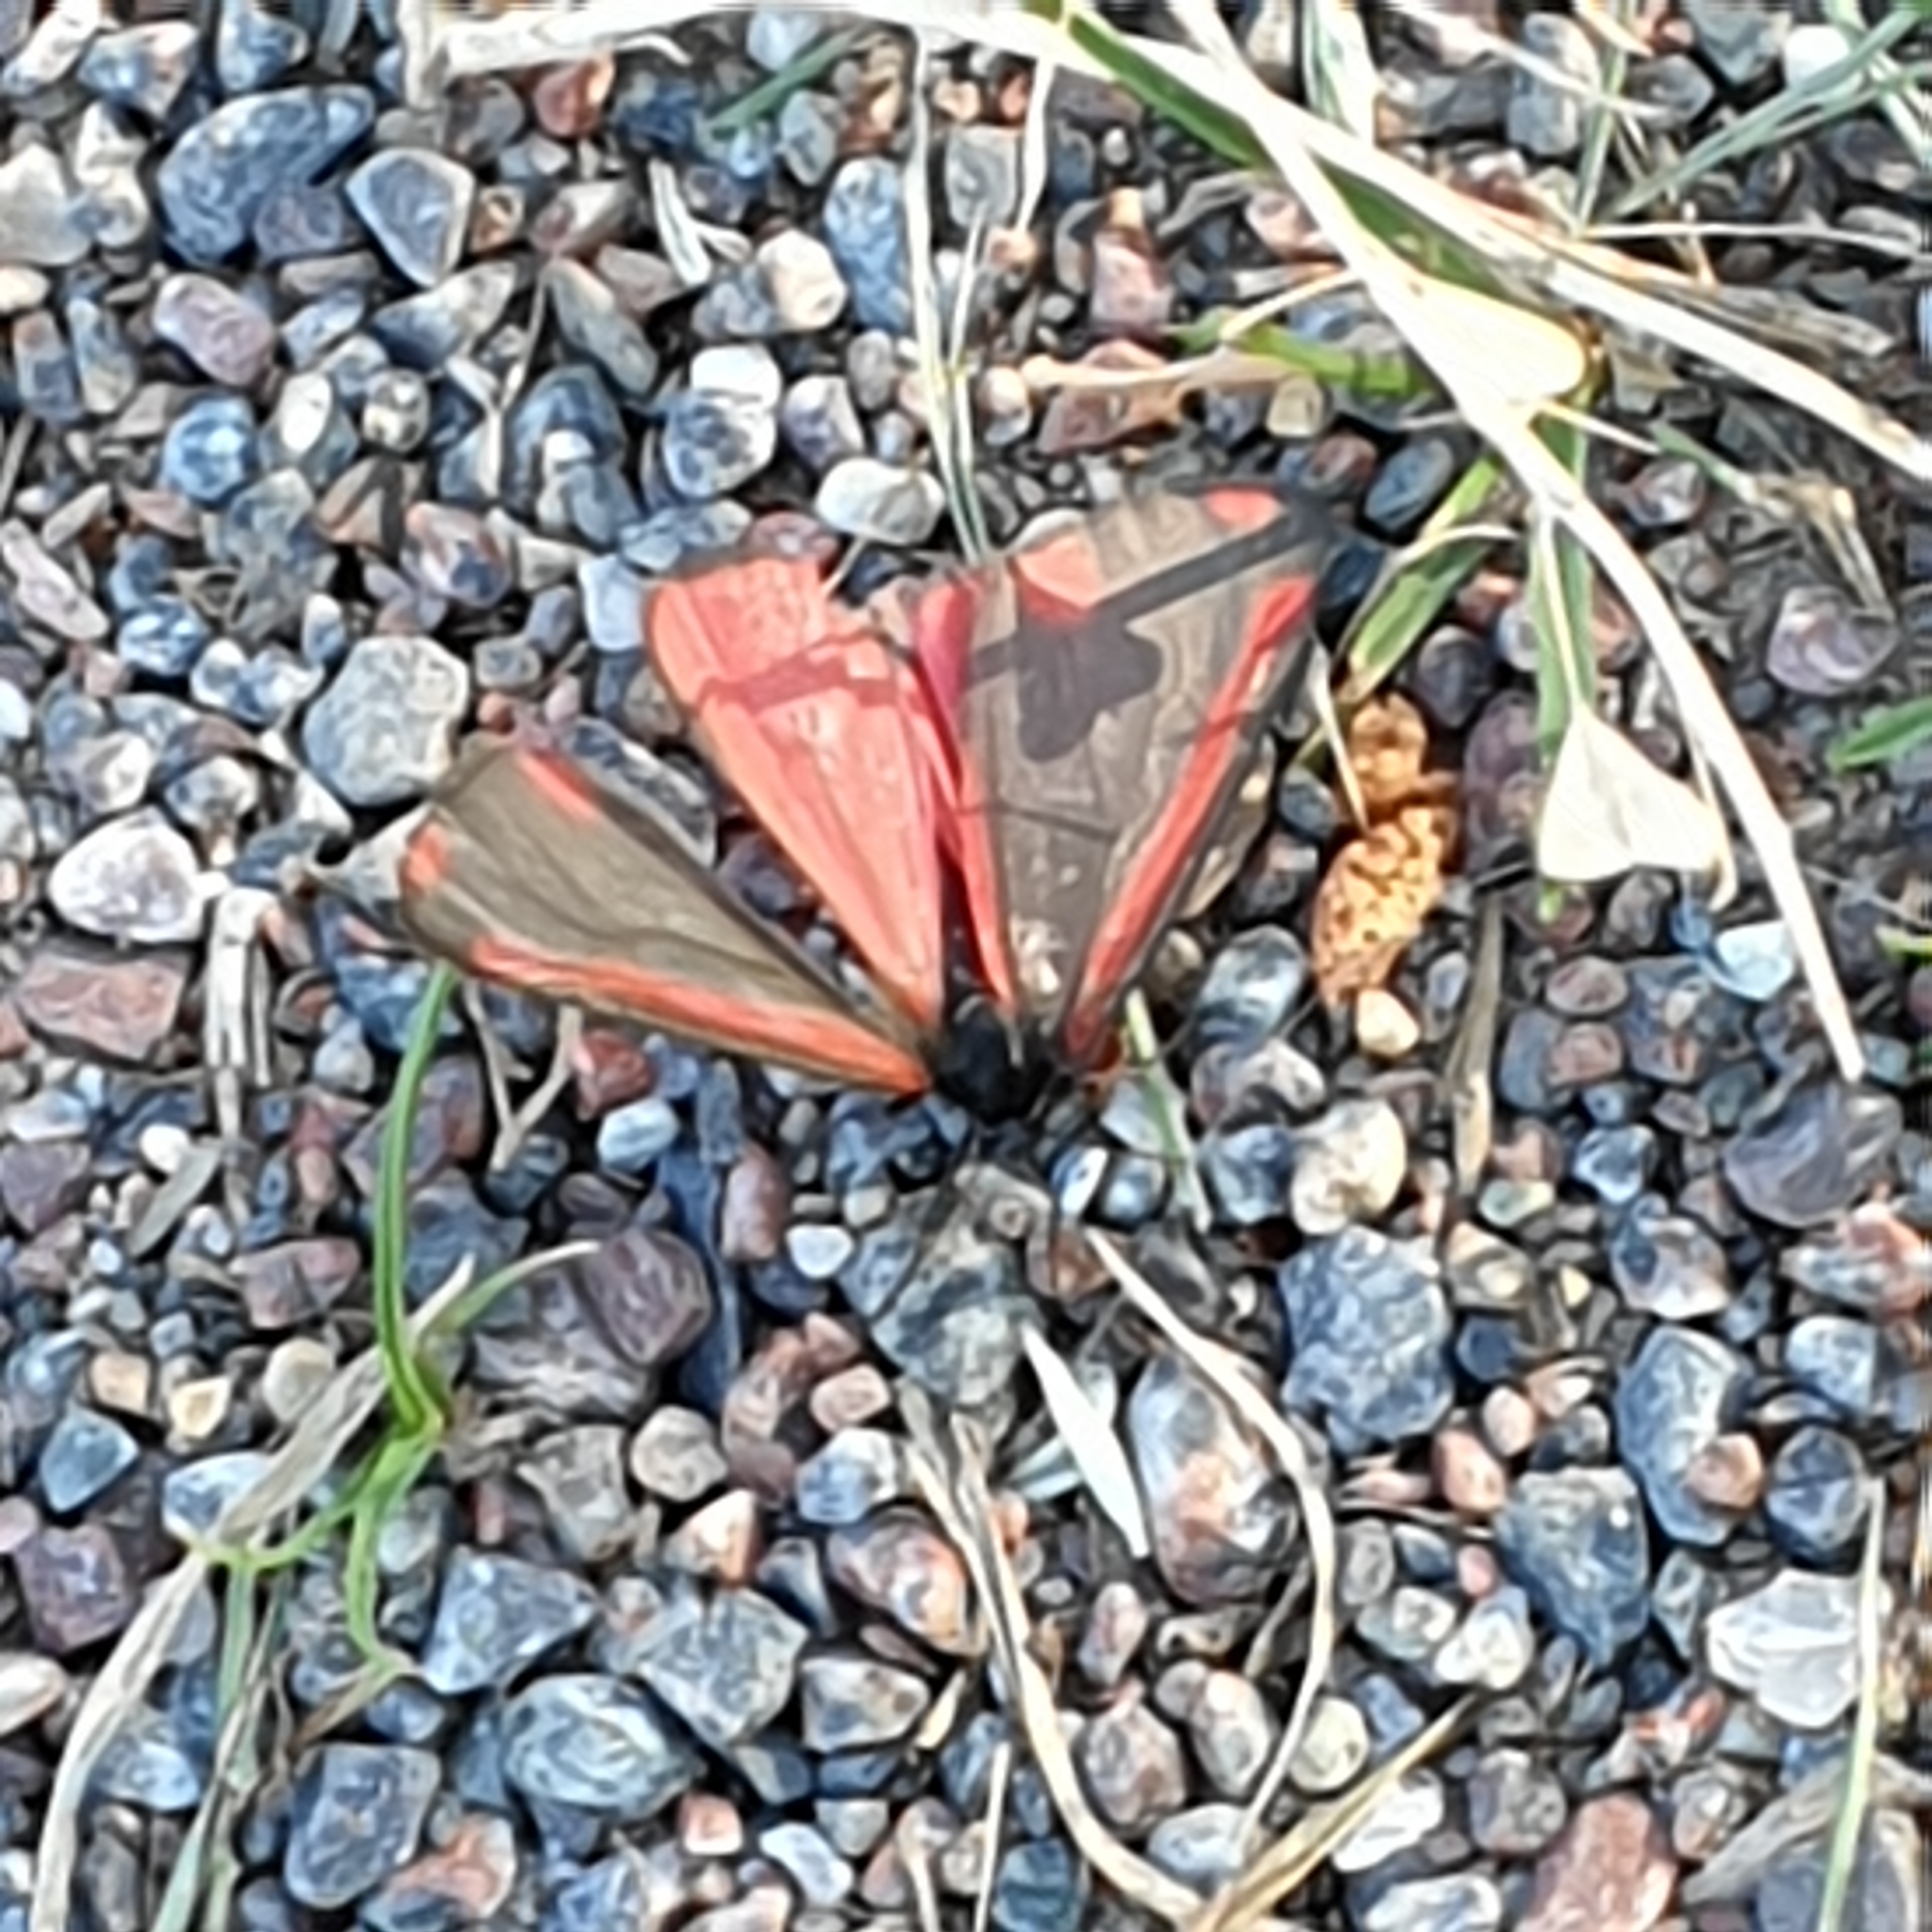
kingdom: Animalia
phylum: Arthropoda
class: Insecta
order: Lepidoptera
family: Erebidae
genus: Tyria
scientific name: Tyria jacobaeae
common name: Cinnabar
